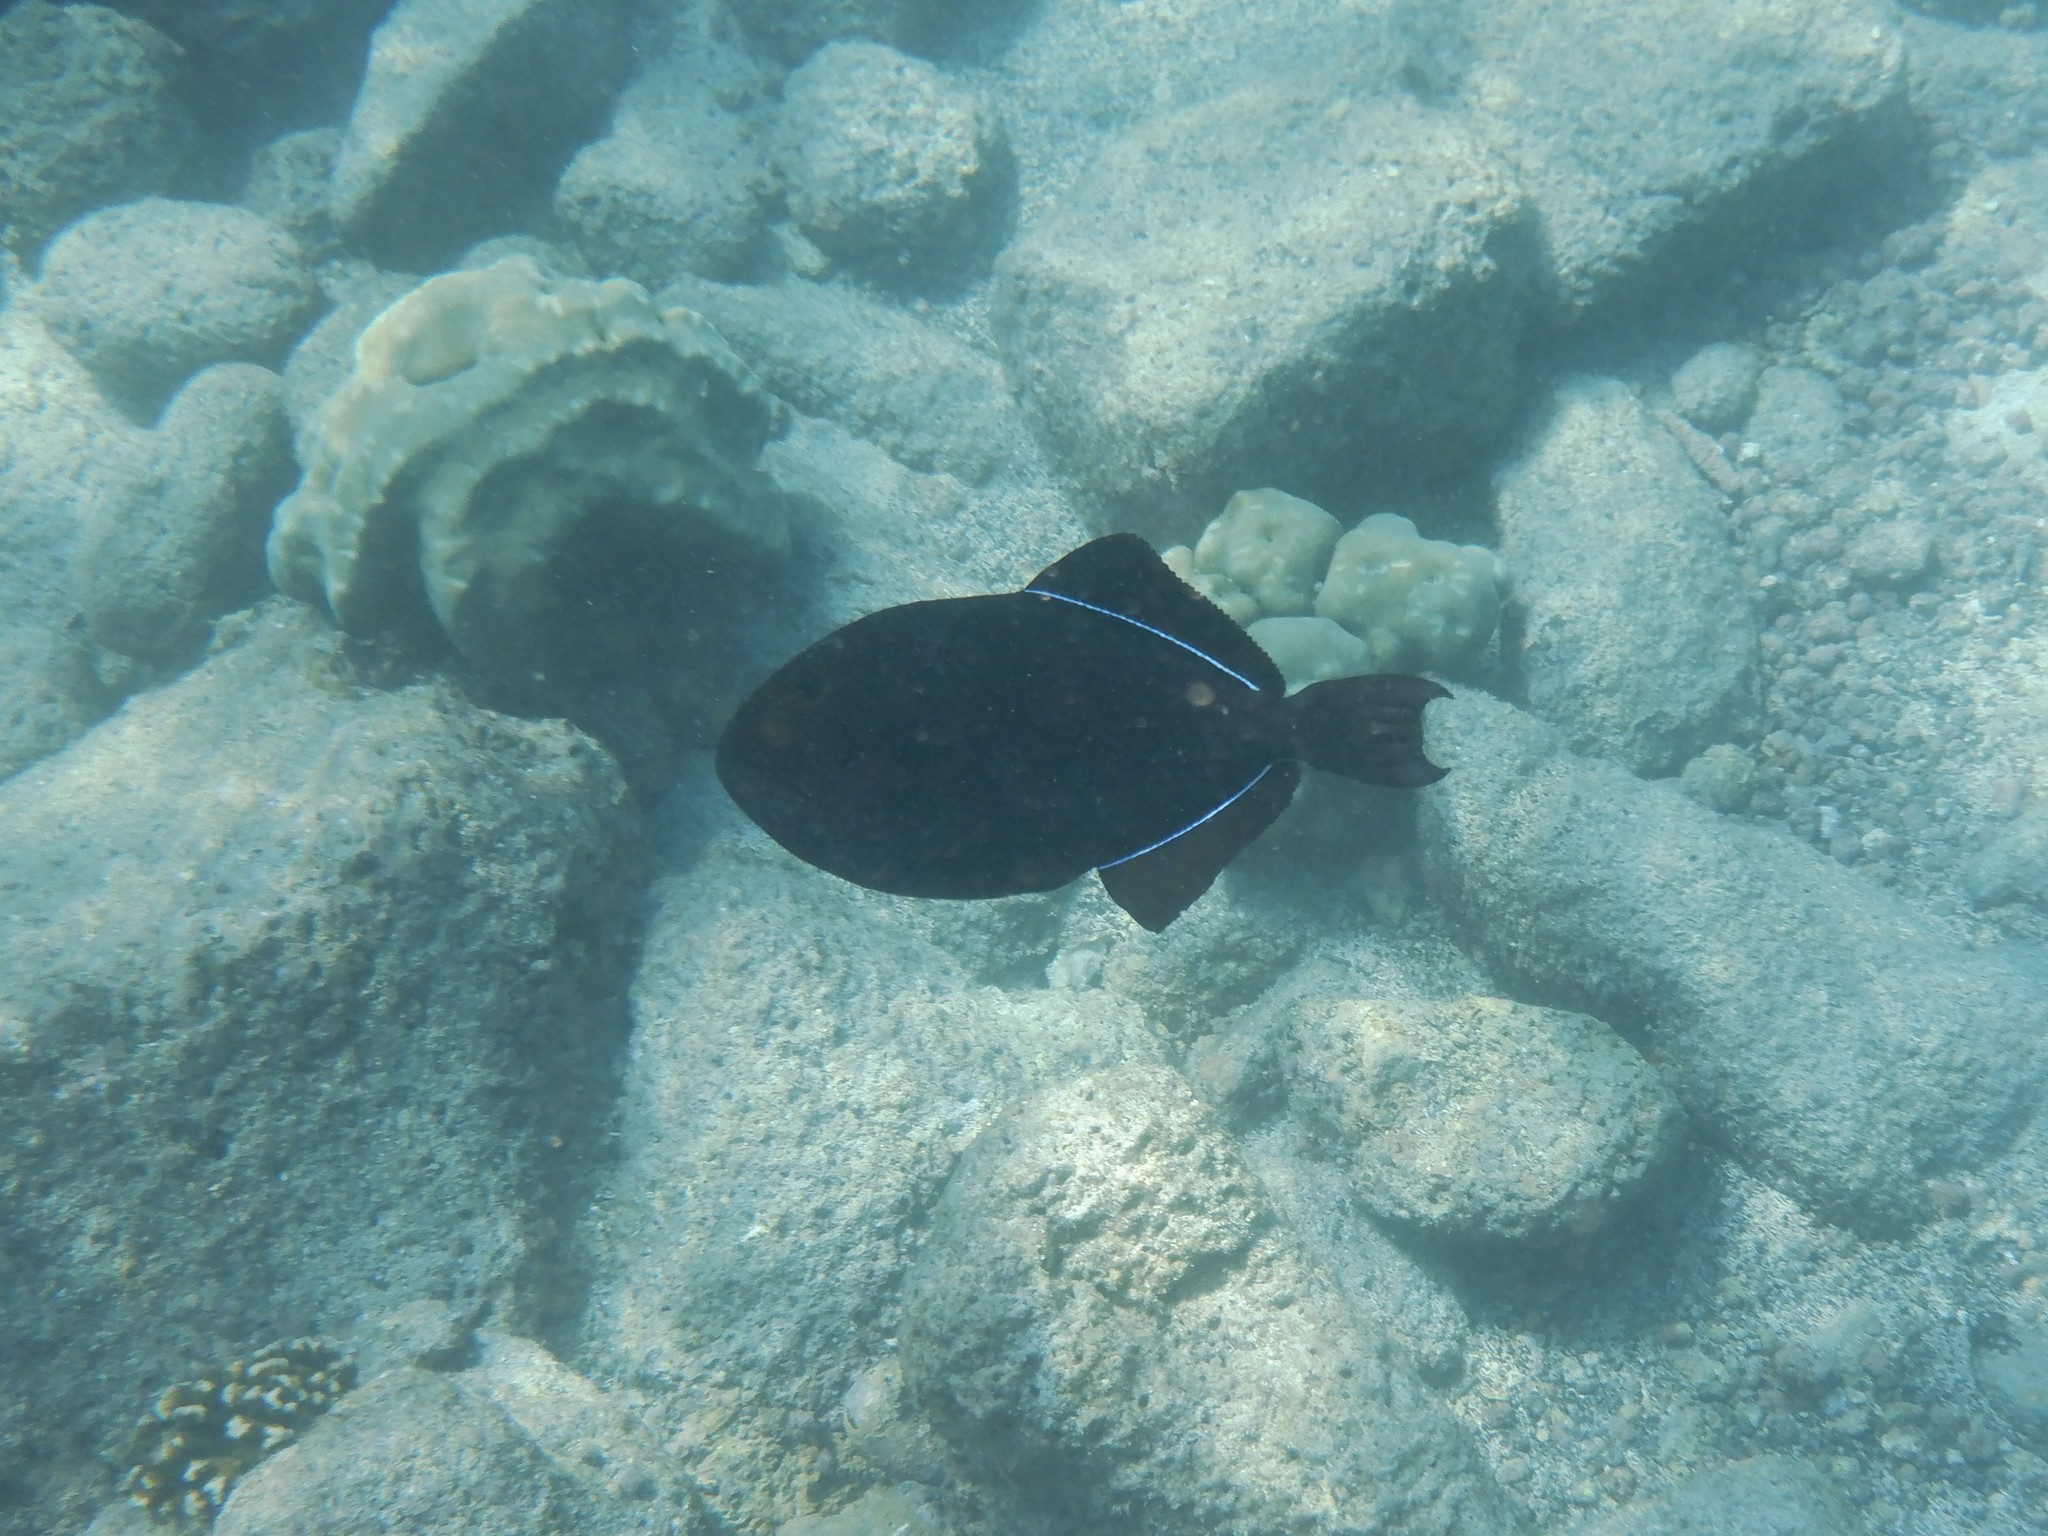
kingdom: Animalia
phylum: Chordata
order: Tetraodontiformes
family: Balistidae
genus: Melichthys
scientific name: Melichthys niger
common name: Black durgon
